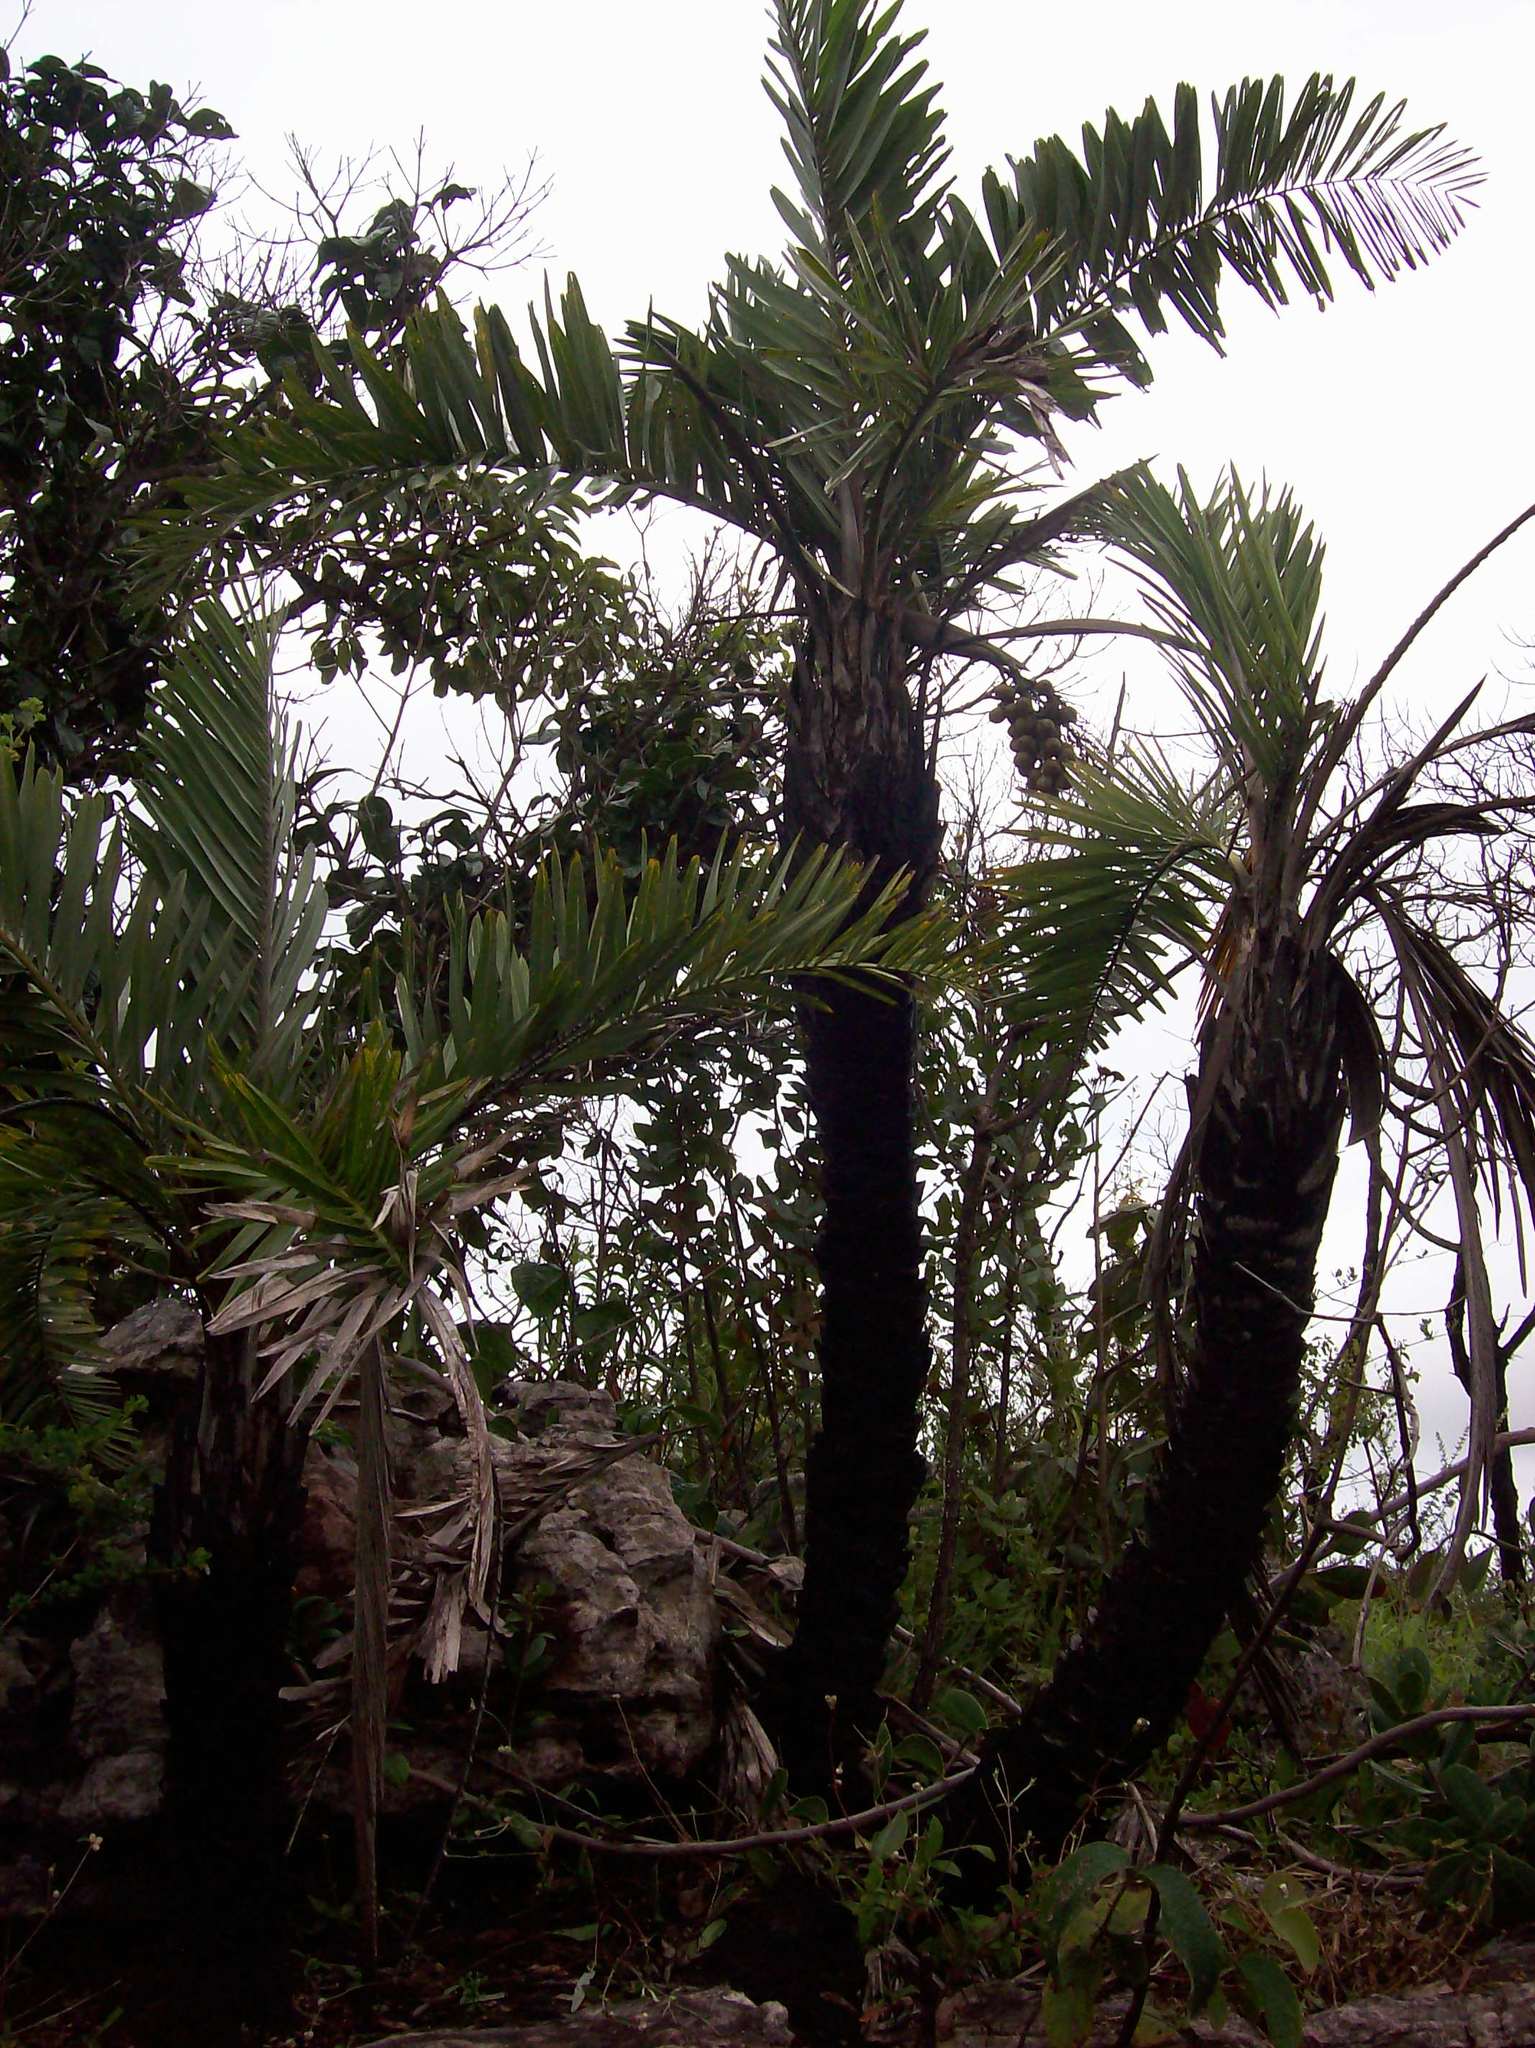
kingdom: Plantae
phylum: Tracheophyta
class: Liliopsida
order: Arecales
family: Arecaceae
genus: Syagrus
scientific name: Syagrus glaucescens
